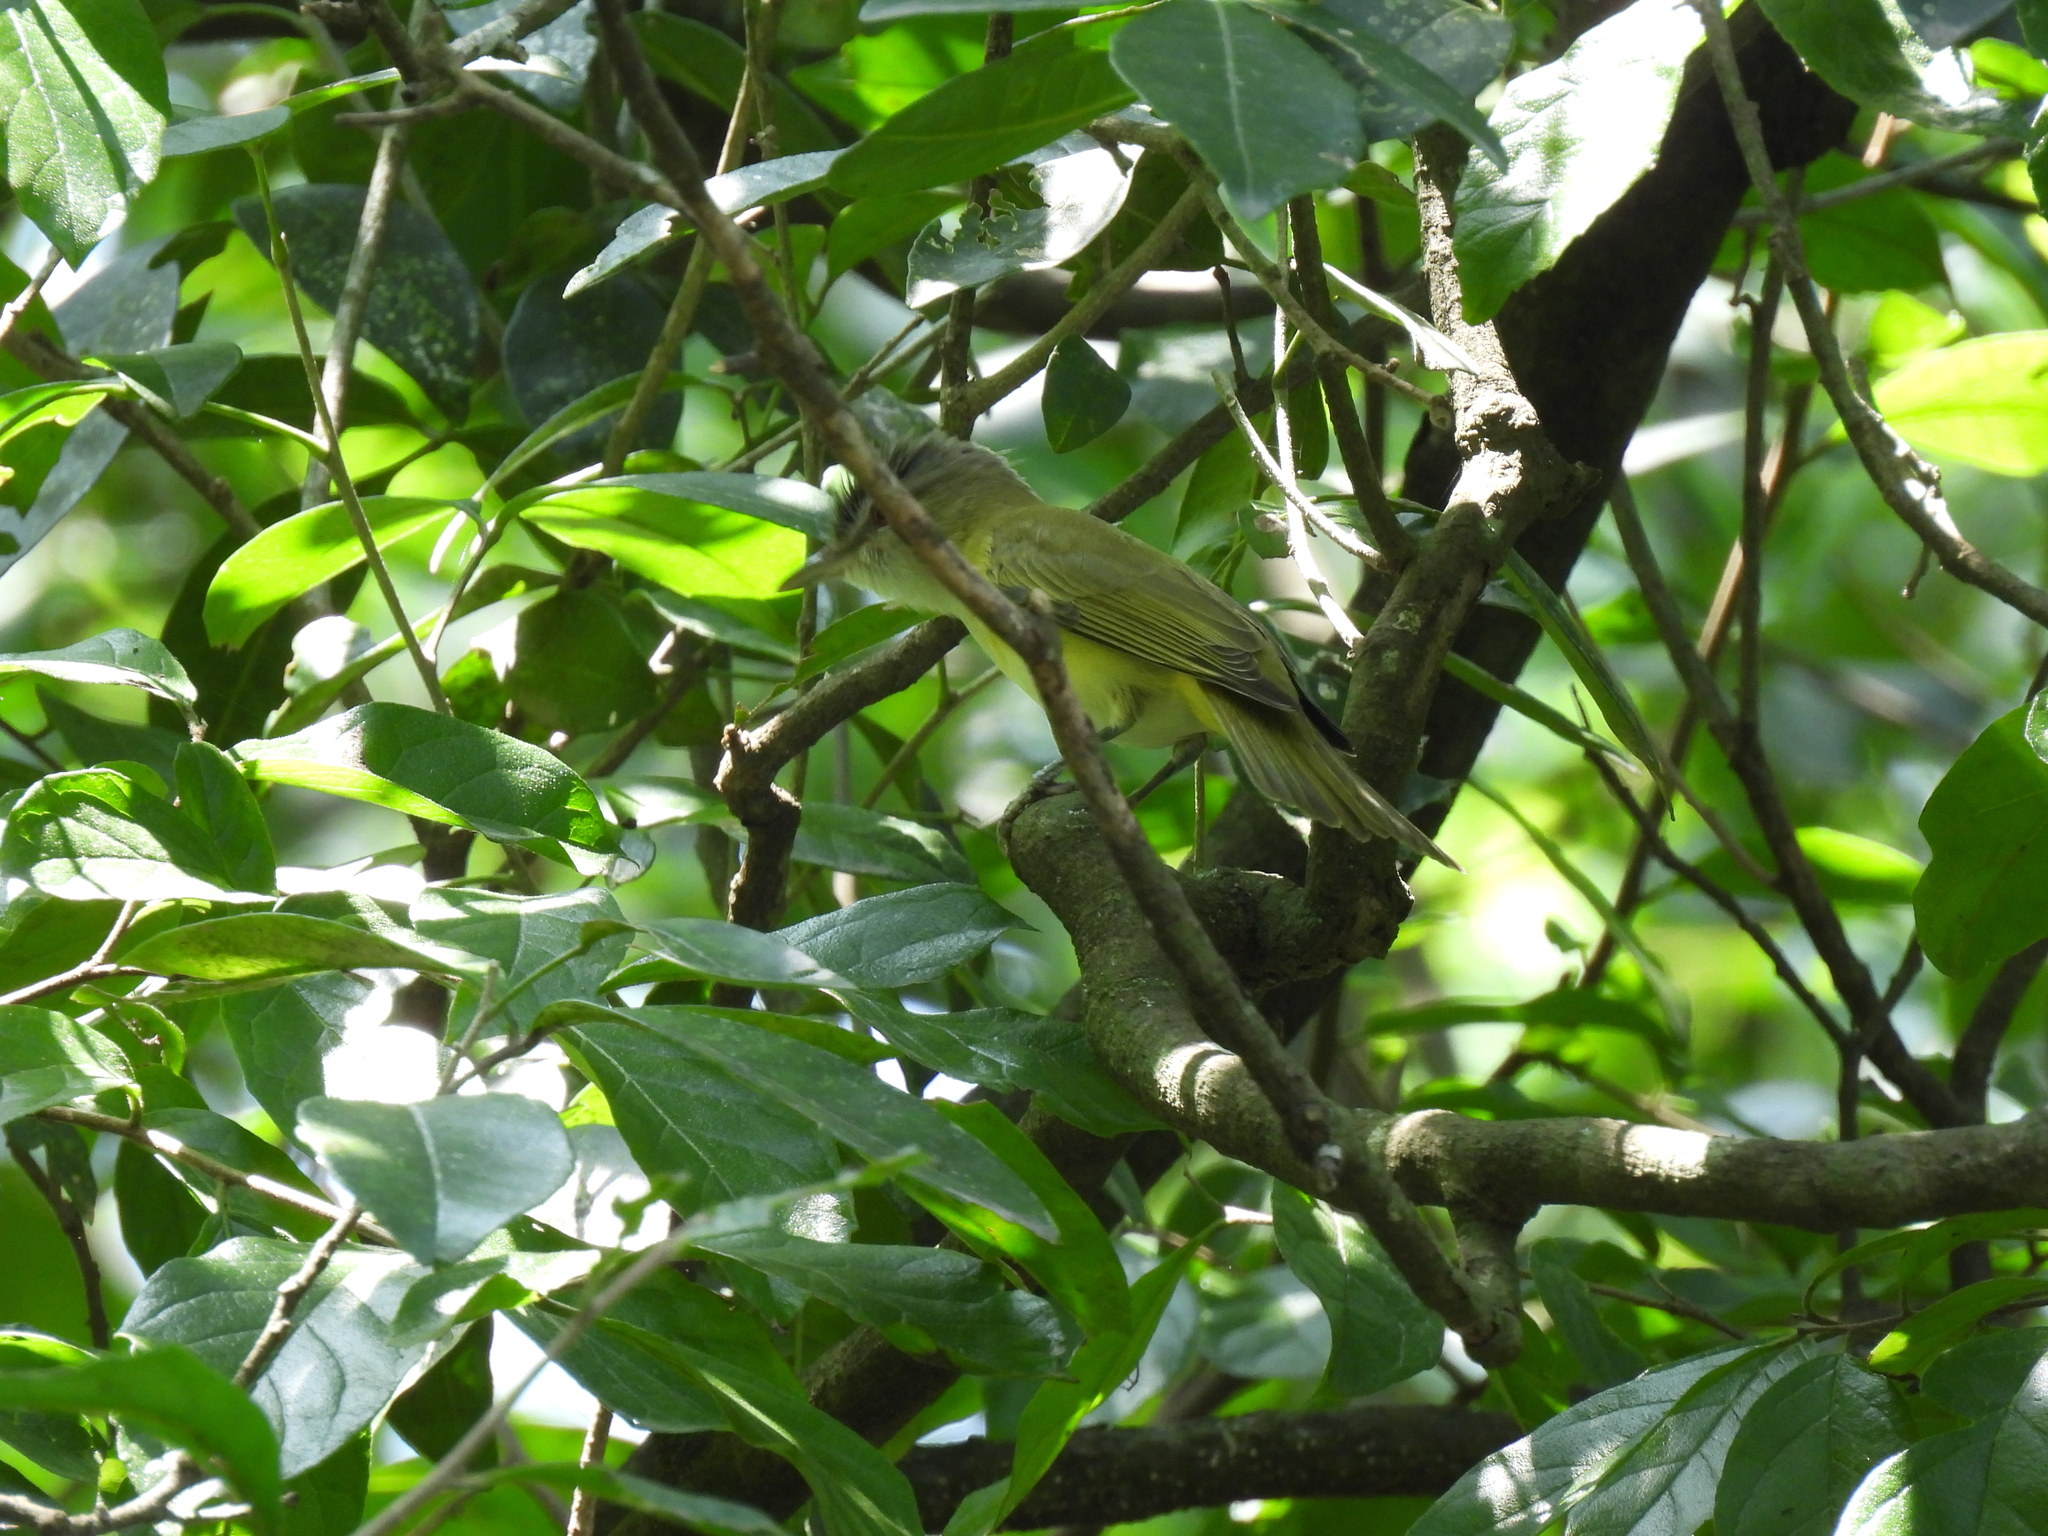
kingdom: Animalia
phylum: Chordata
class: Aves
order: Passeriformes
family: Vireonidae
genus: Vireo
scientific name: Vireo flavoviridis
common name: Yellow-green vireo
